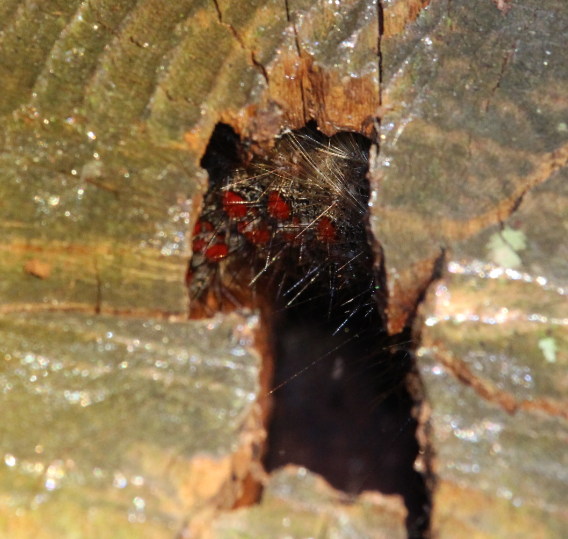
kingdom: Animalia
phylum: Arthropoda
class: Insecta
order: Lepidoptera
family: Erebidae
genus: Lymantria
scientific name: Lymantria dispar
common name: Gypsy moth
